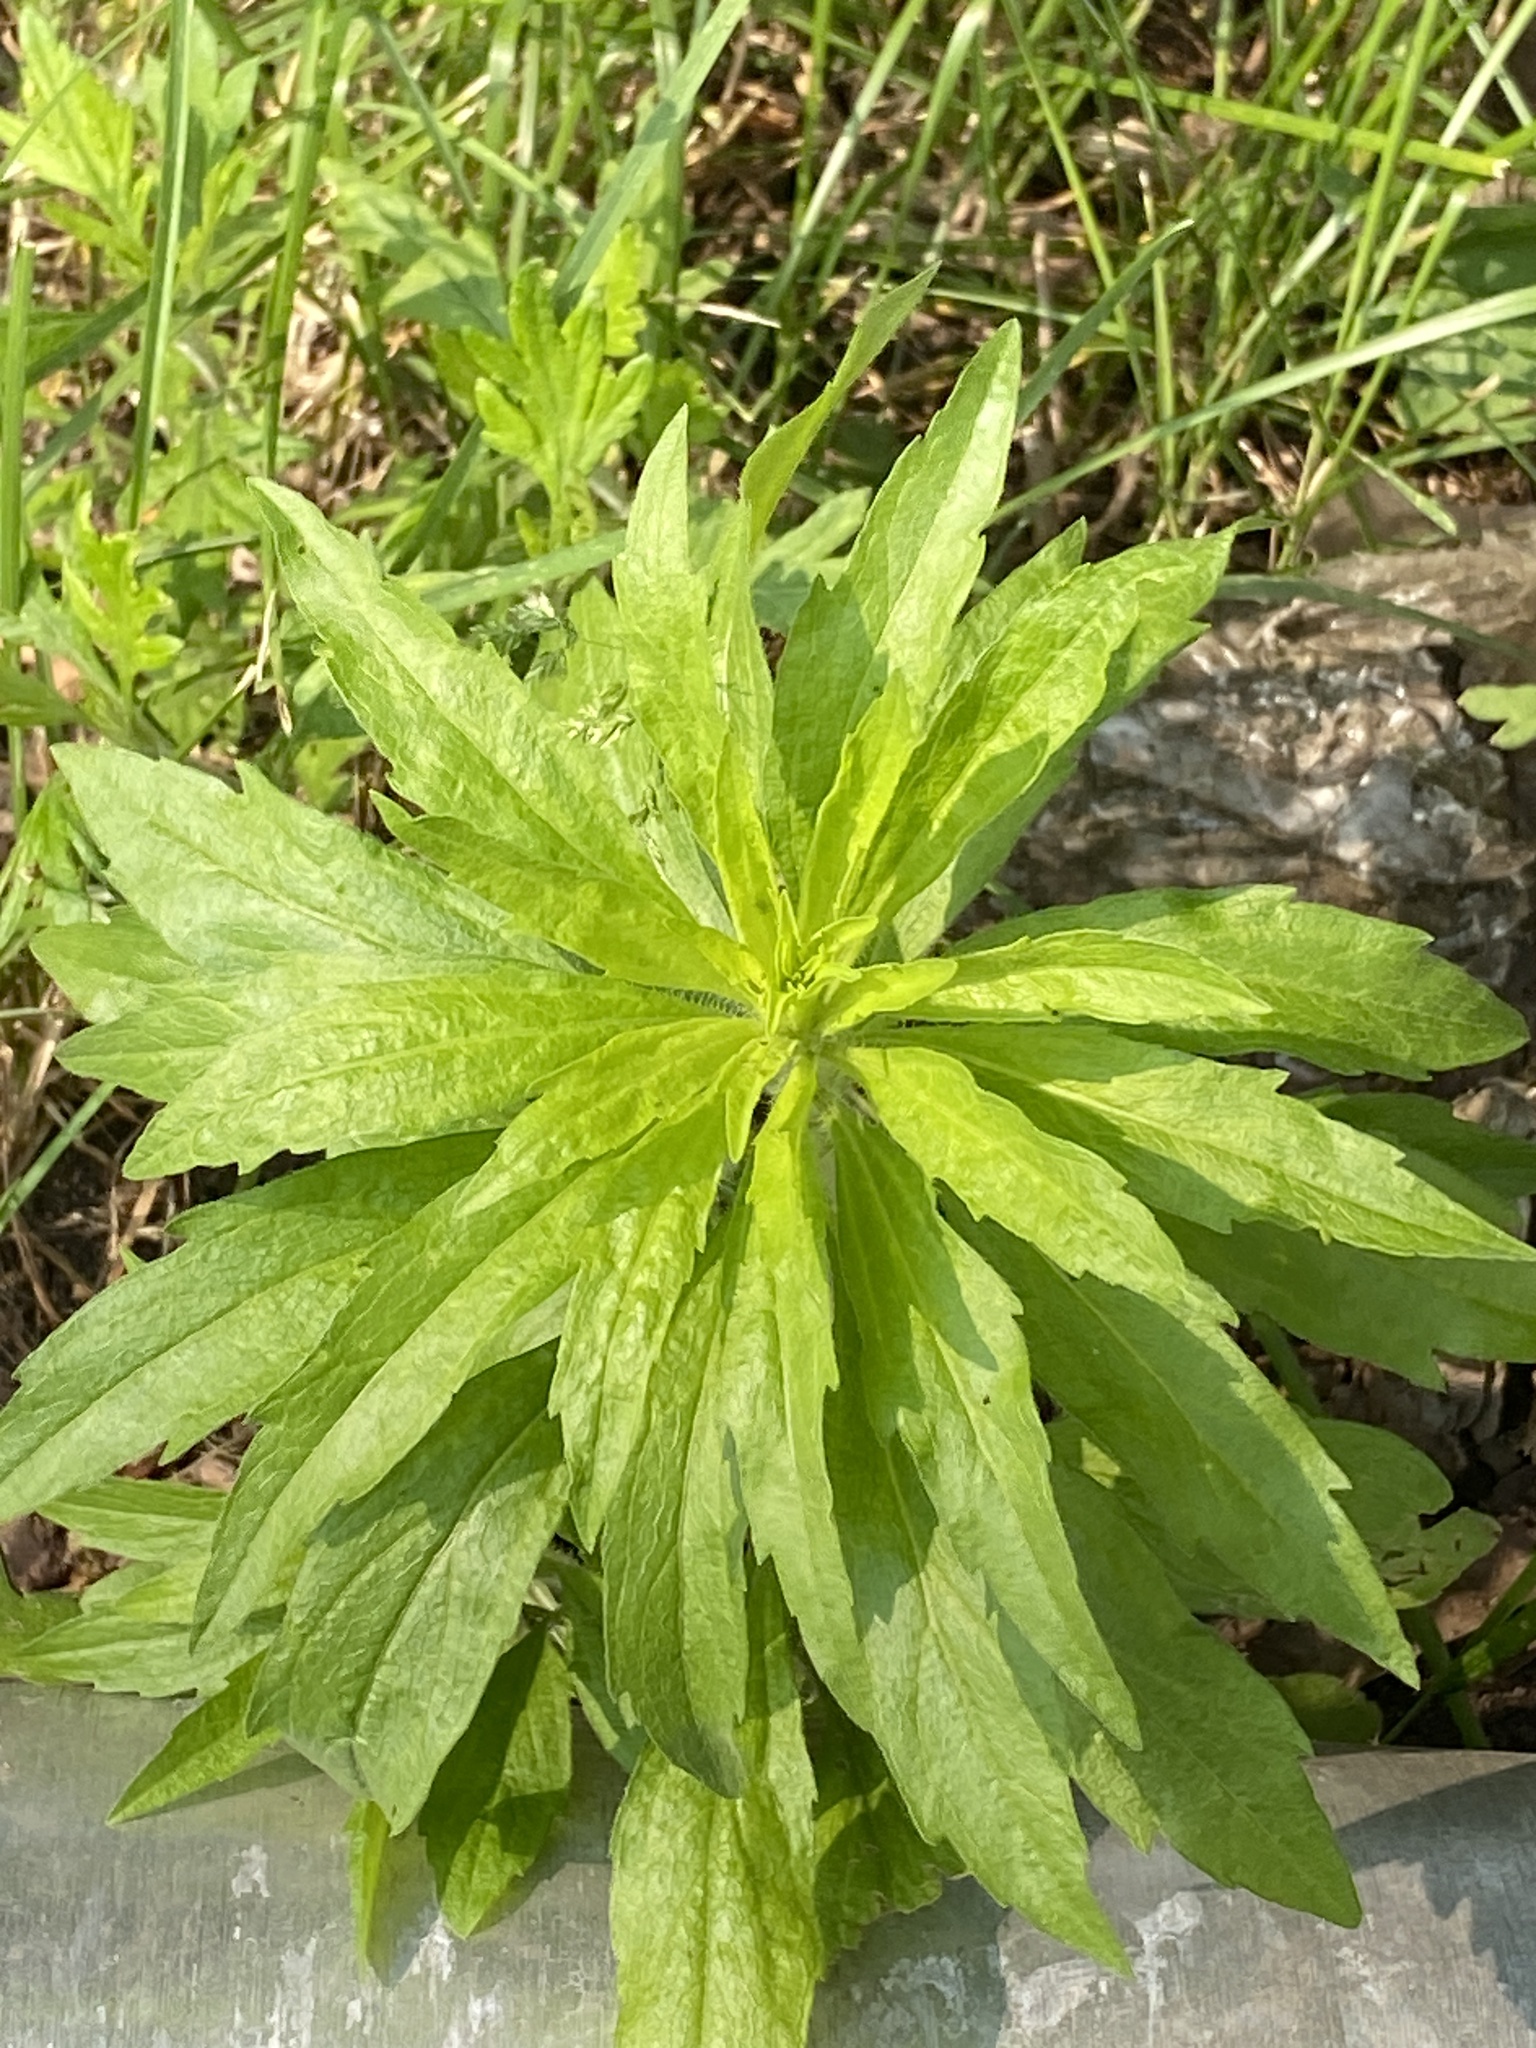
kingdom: Plantae
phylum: Tracheophyta
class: Magnoliopsida
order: Asterales
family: Asteraceae
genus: Erigeron
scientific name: Erigeron canadensis
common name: Canadian fleabane
